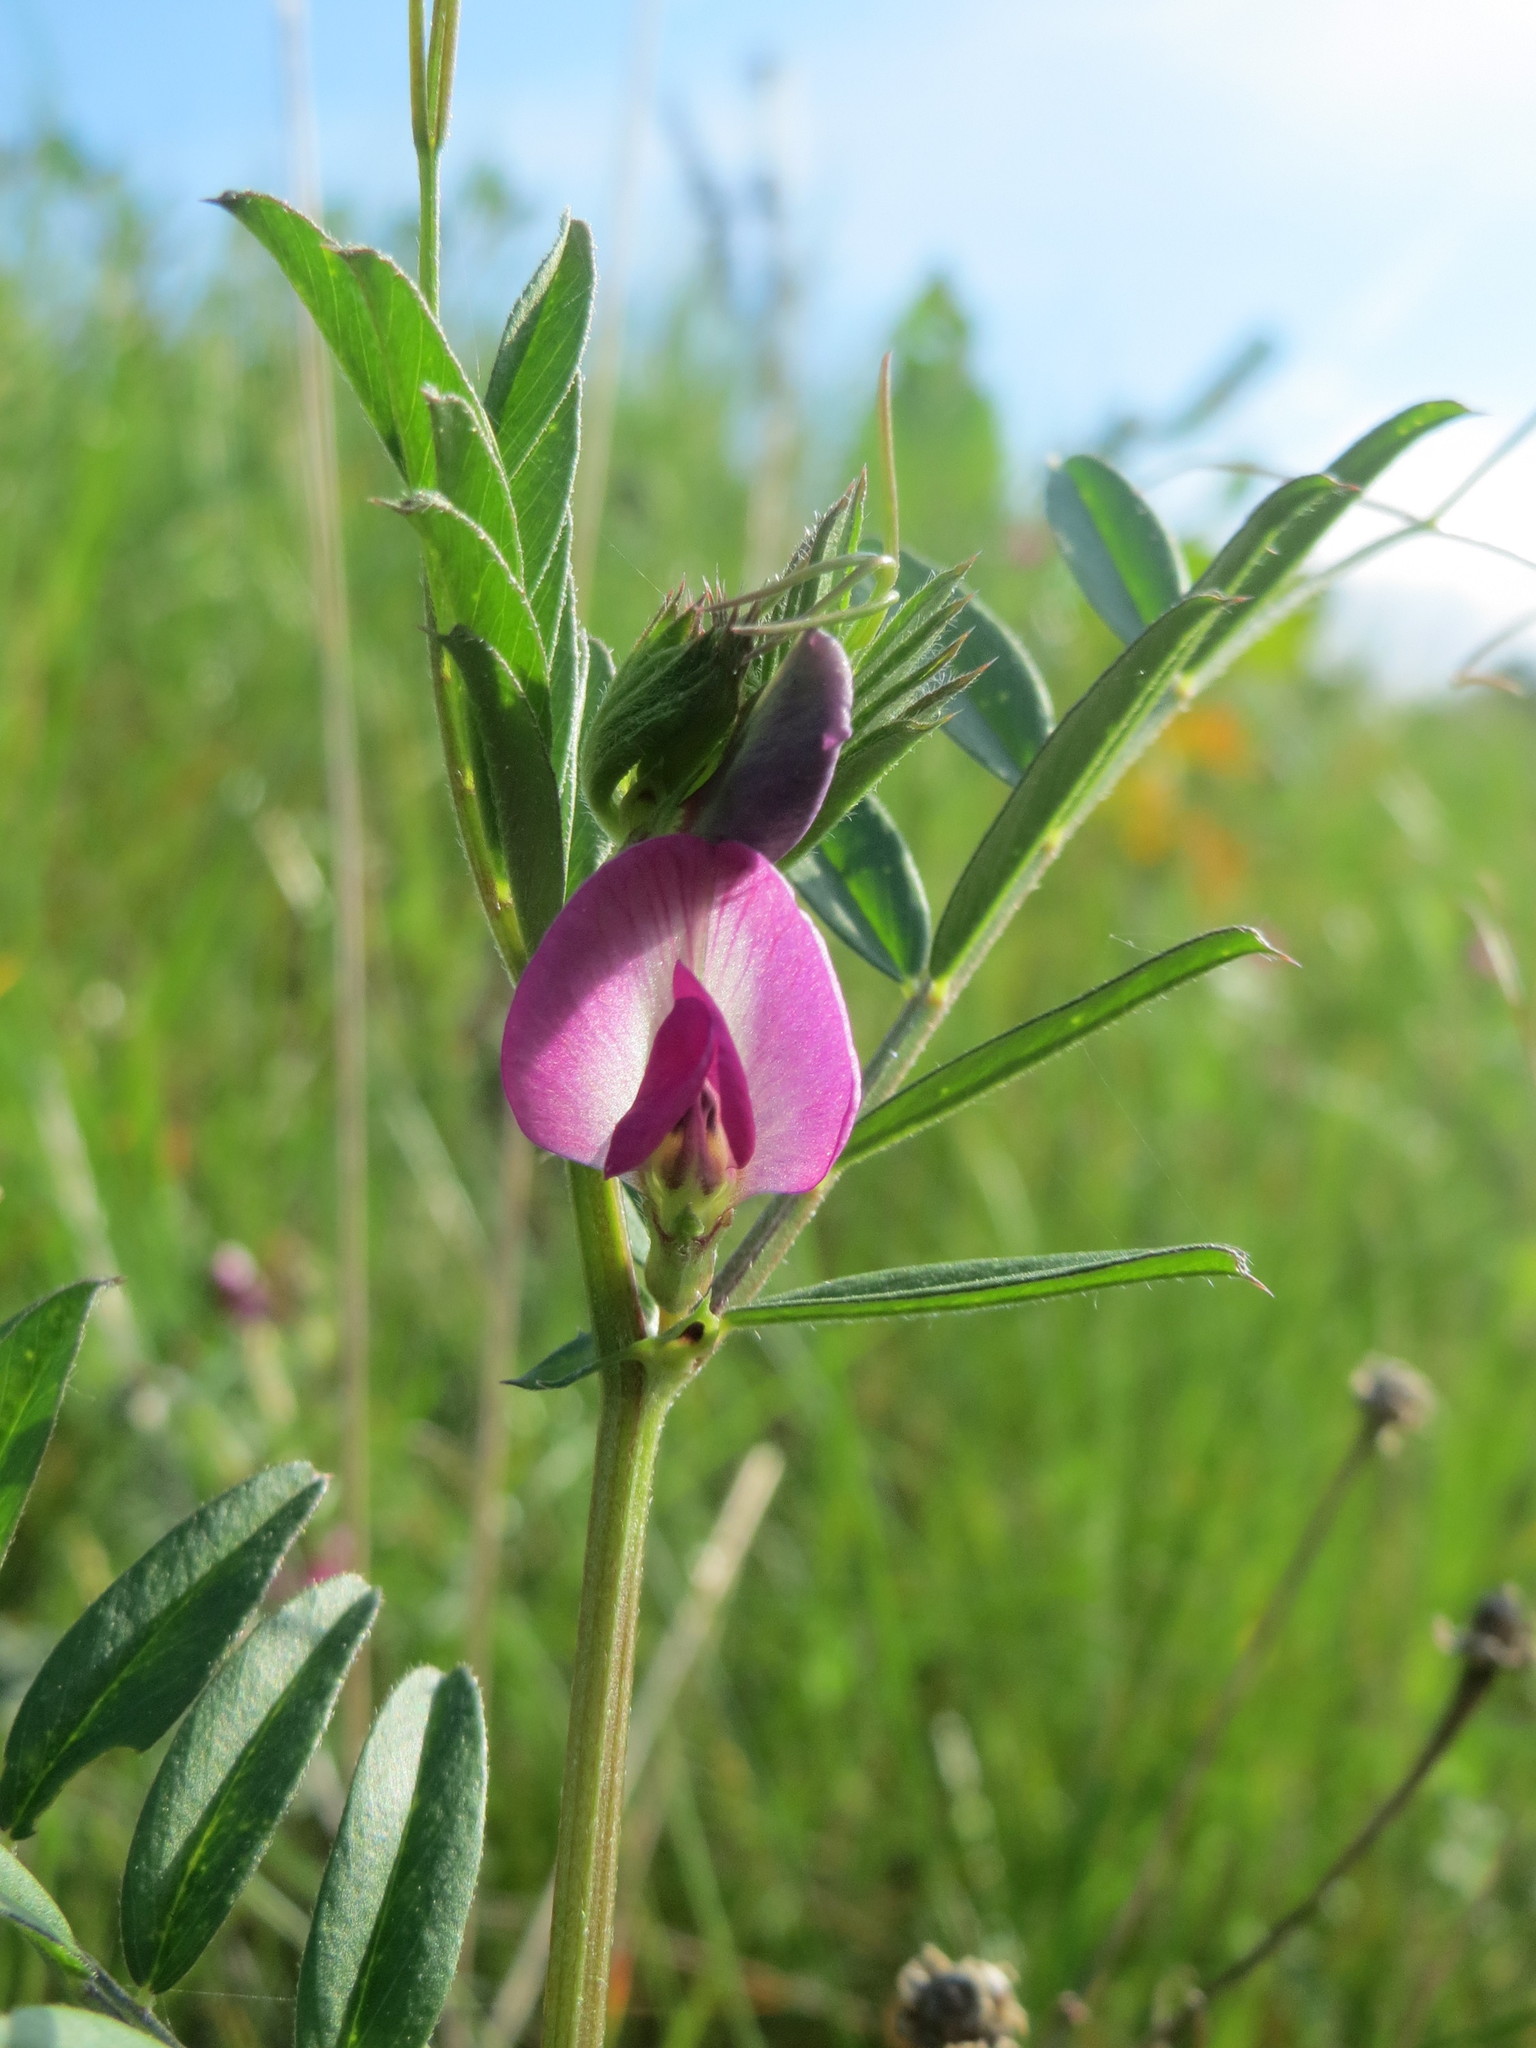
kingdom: Plantae
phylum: Tracheophyta
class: Magnoliopsida
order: Fabales
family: Fabaceae
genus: Vicia
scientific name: Vicia sativa
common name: Garden vetch
